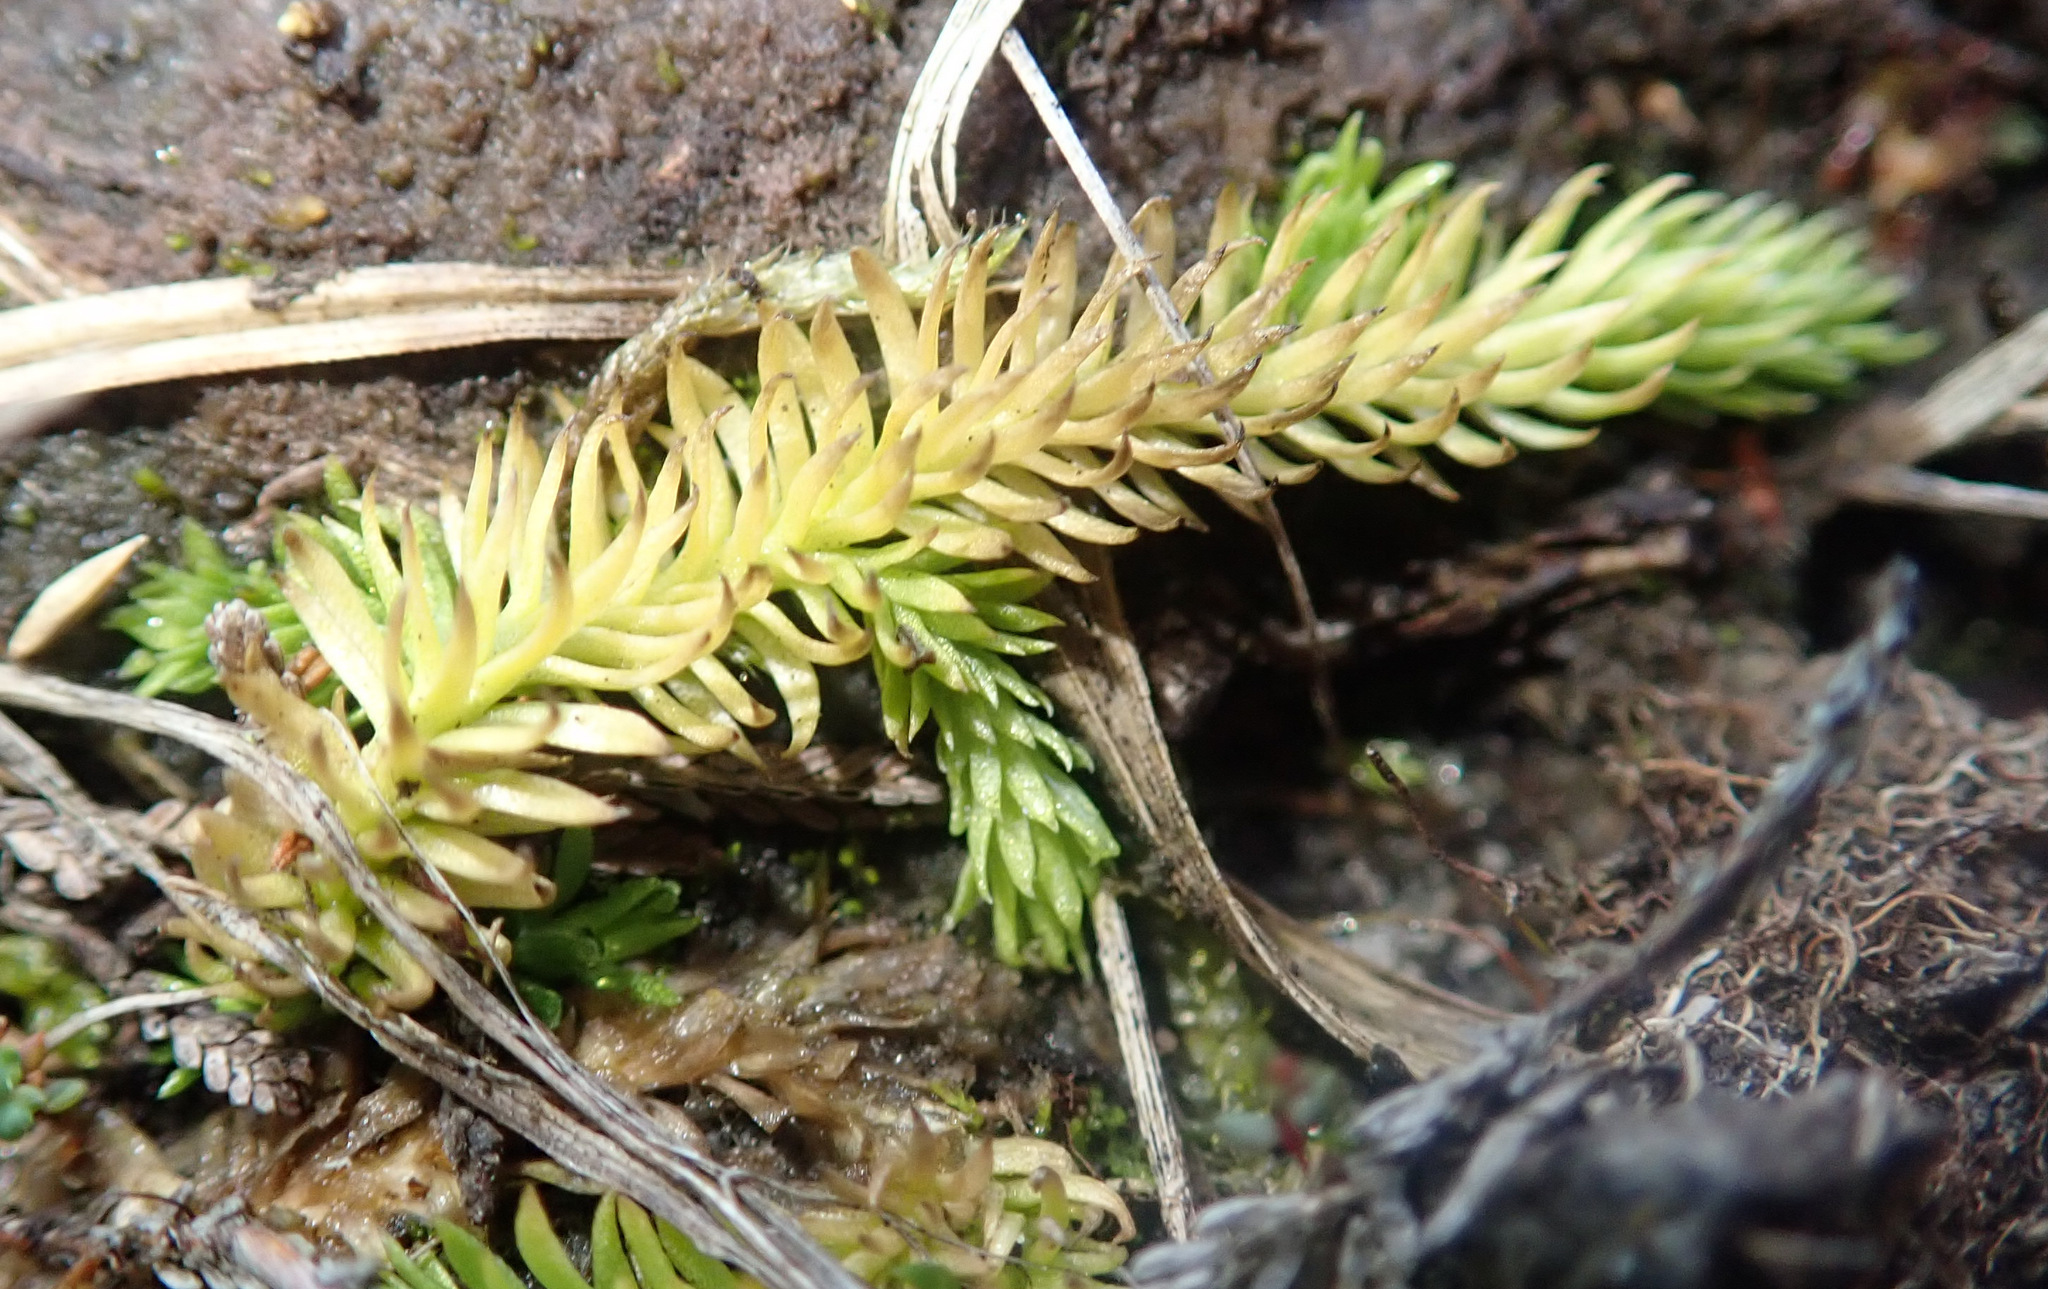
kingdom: Plantae
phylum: Tracheophyta
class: Lycopodiopsida
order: Lycopodiales
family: Lycopodiaceae
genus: Lycopodiella
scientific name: Lycopodiella inundata
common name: Marsh clubmoss
